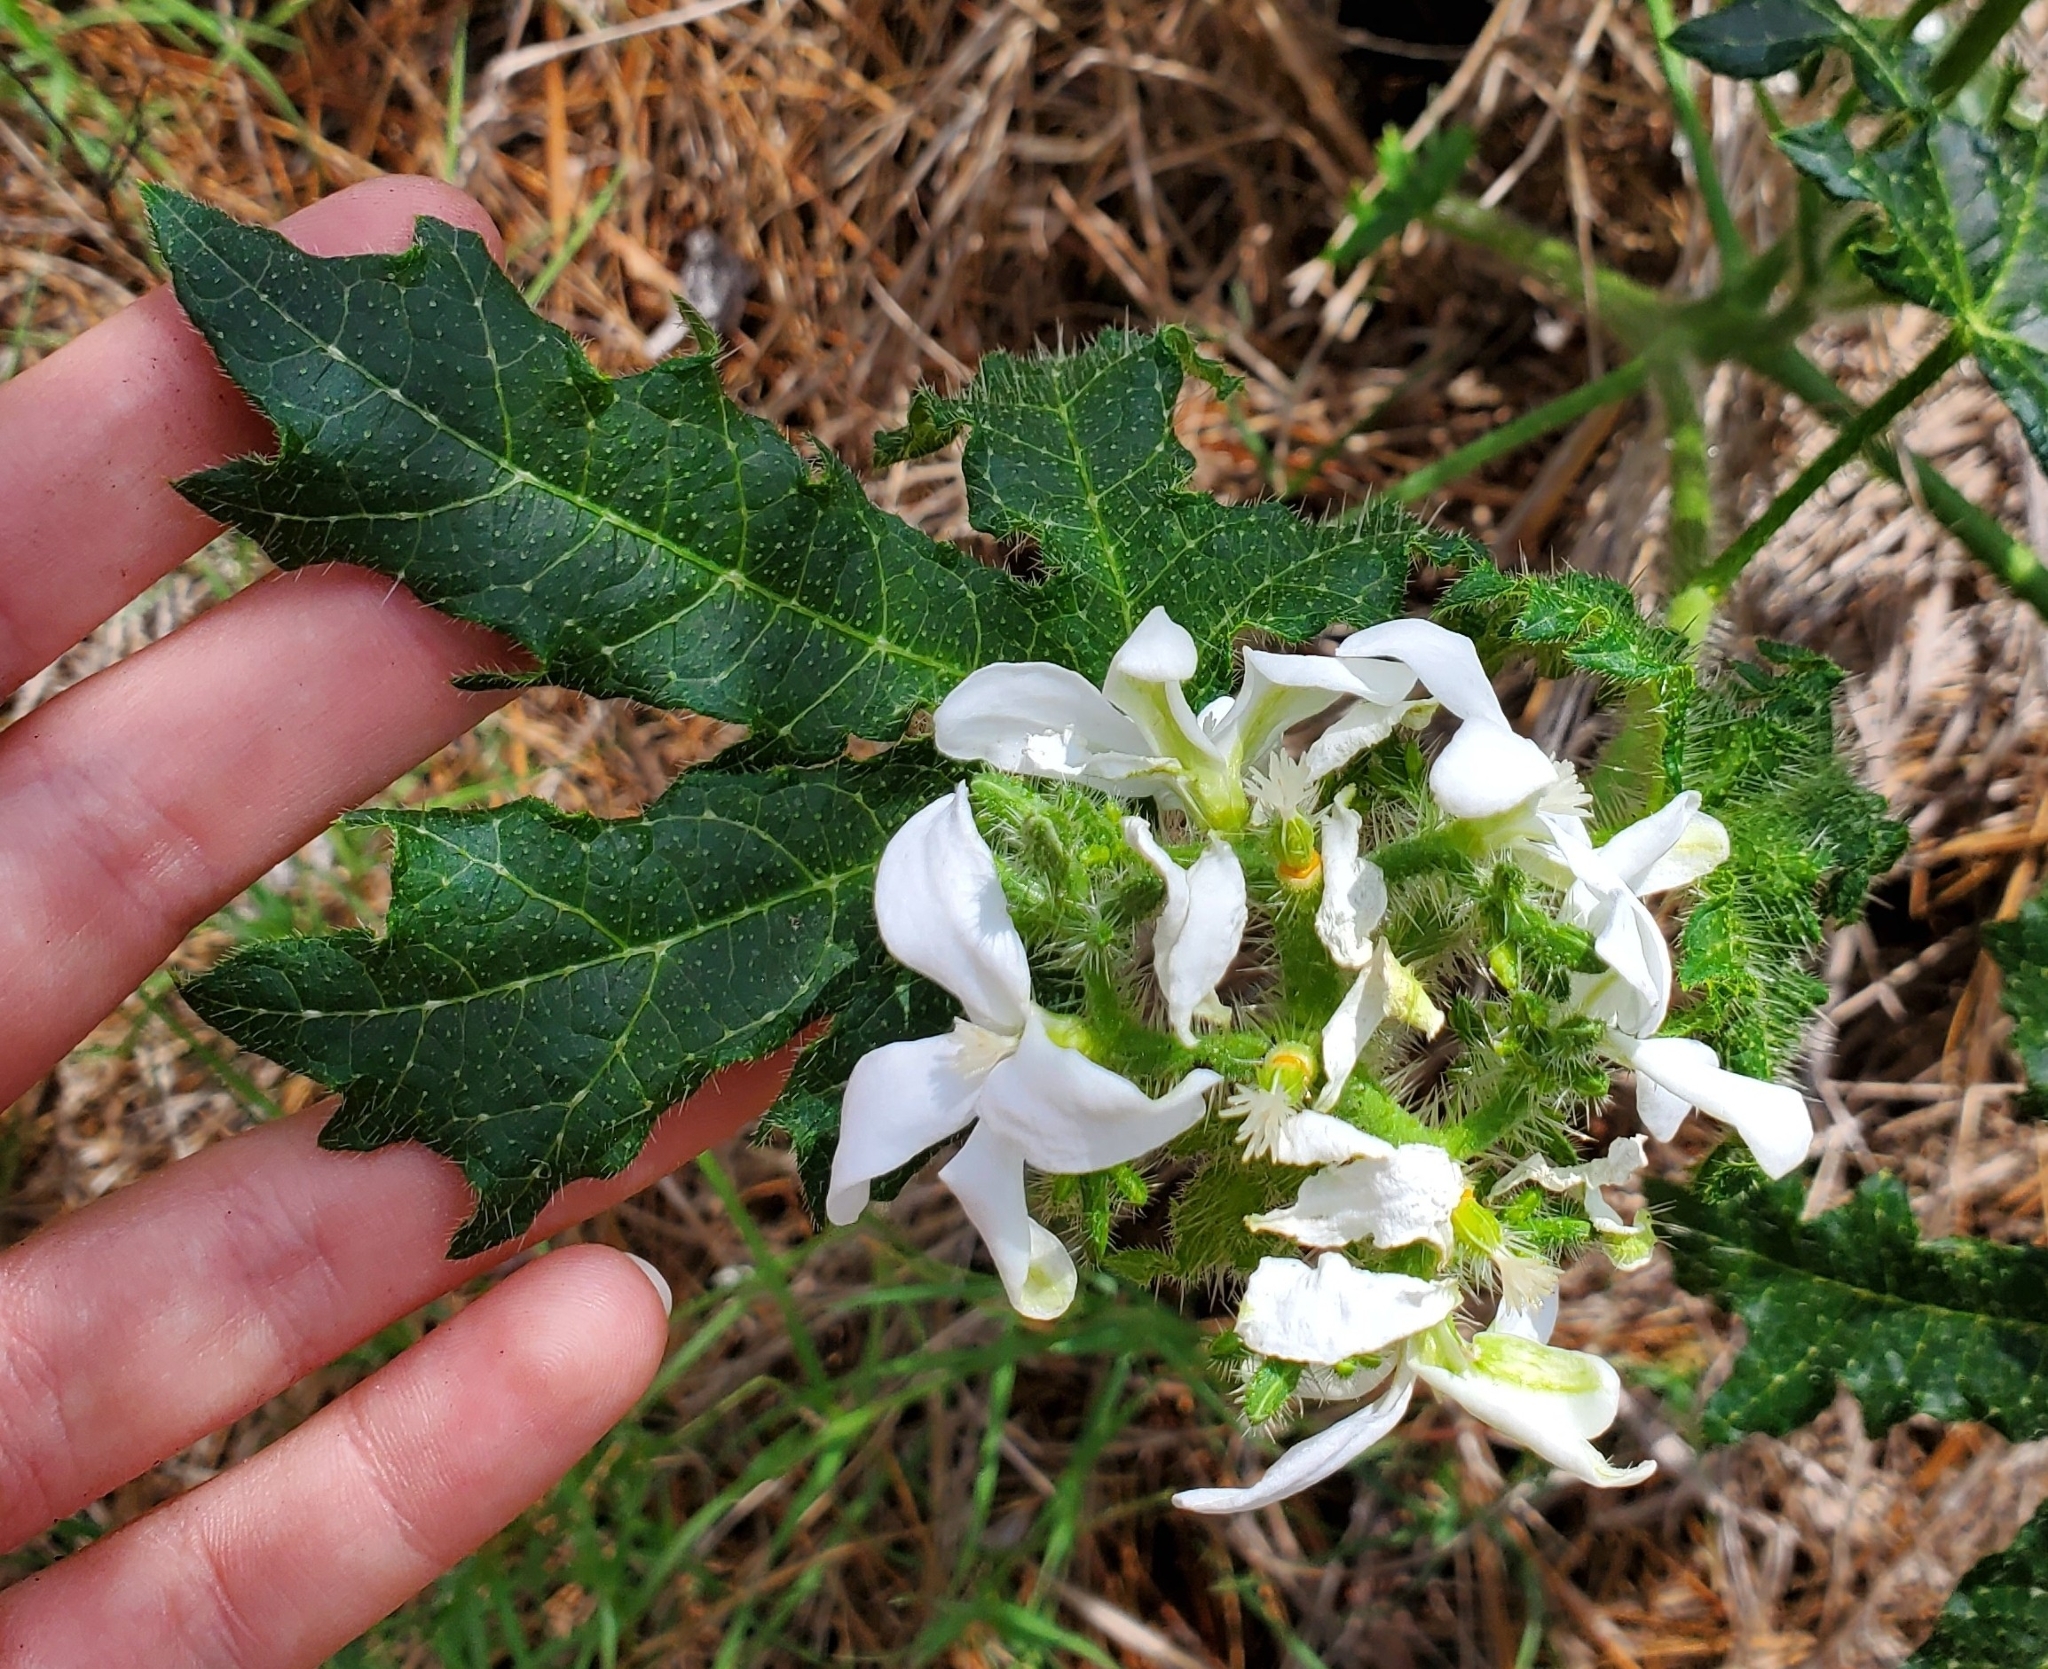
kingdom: Plantae
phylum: Tracheophyta
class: Magnoliopsida
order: Malpighiales
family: Euphorbiaceae
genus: Cnidoscolus
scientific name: Cnidoscolus stimulosus
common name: Bull-nettle
